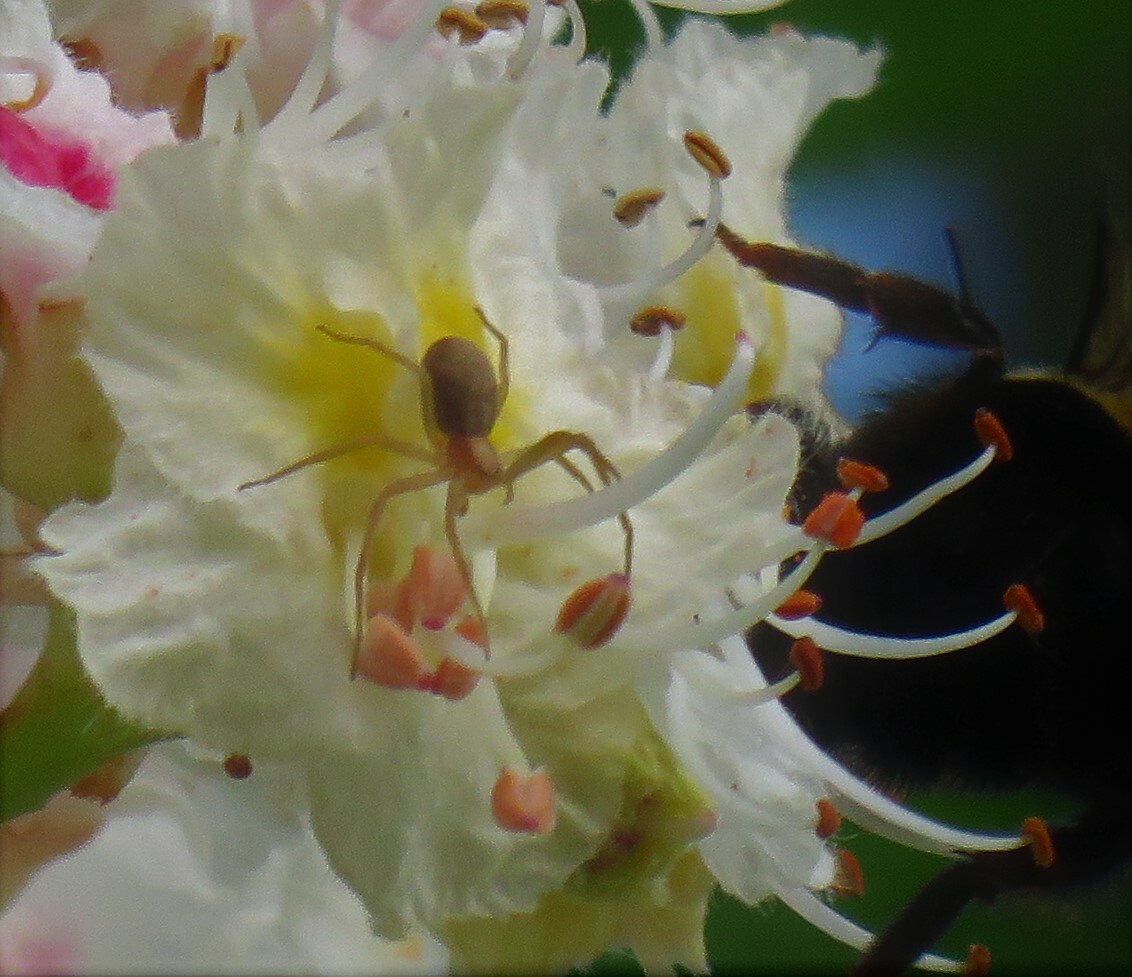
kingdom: Animalia
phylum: Arthropoda
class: Arachnida
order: Araneae
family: Philodromidae
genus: Philodromus
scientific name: Philodromus rufus
